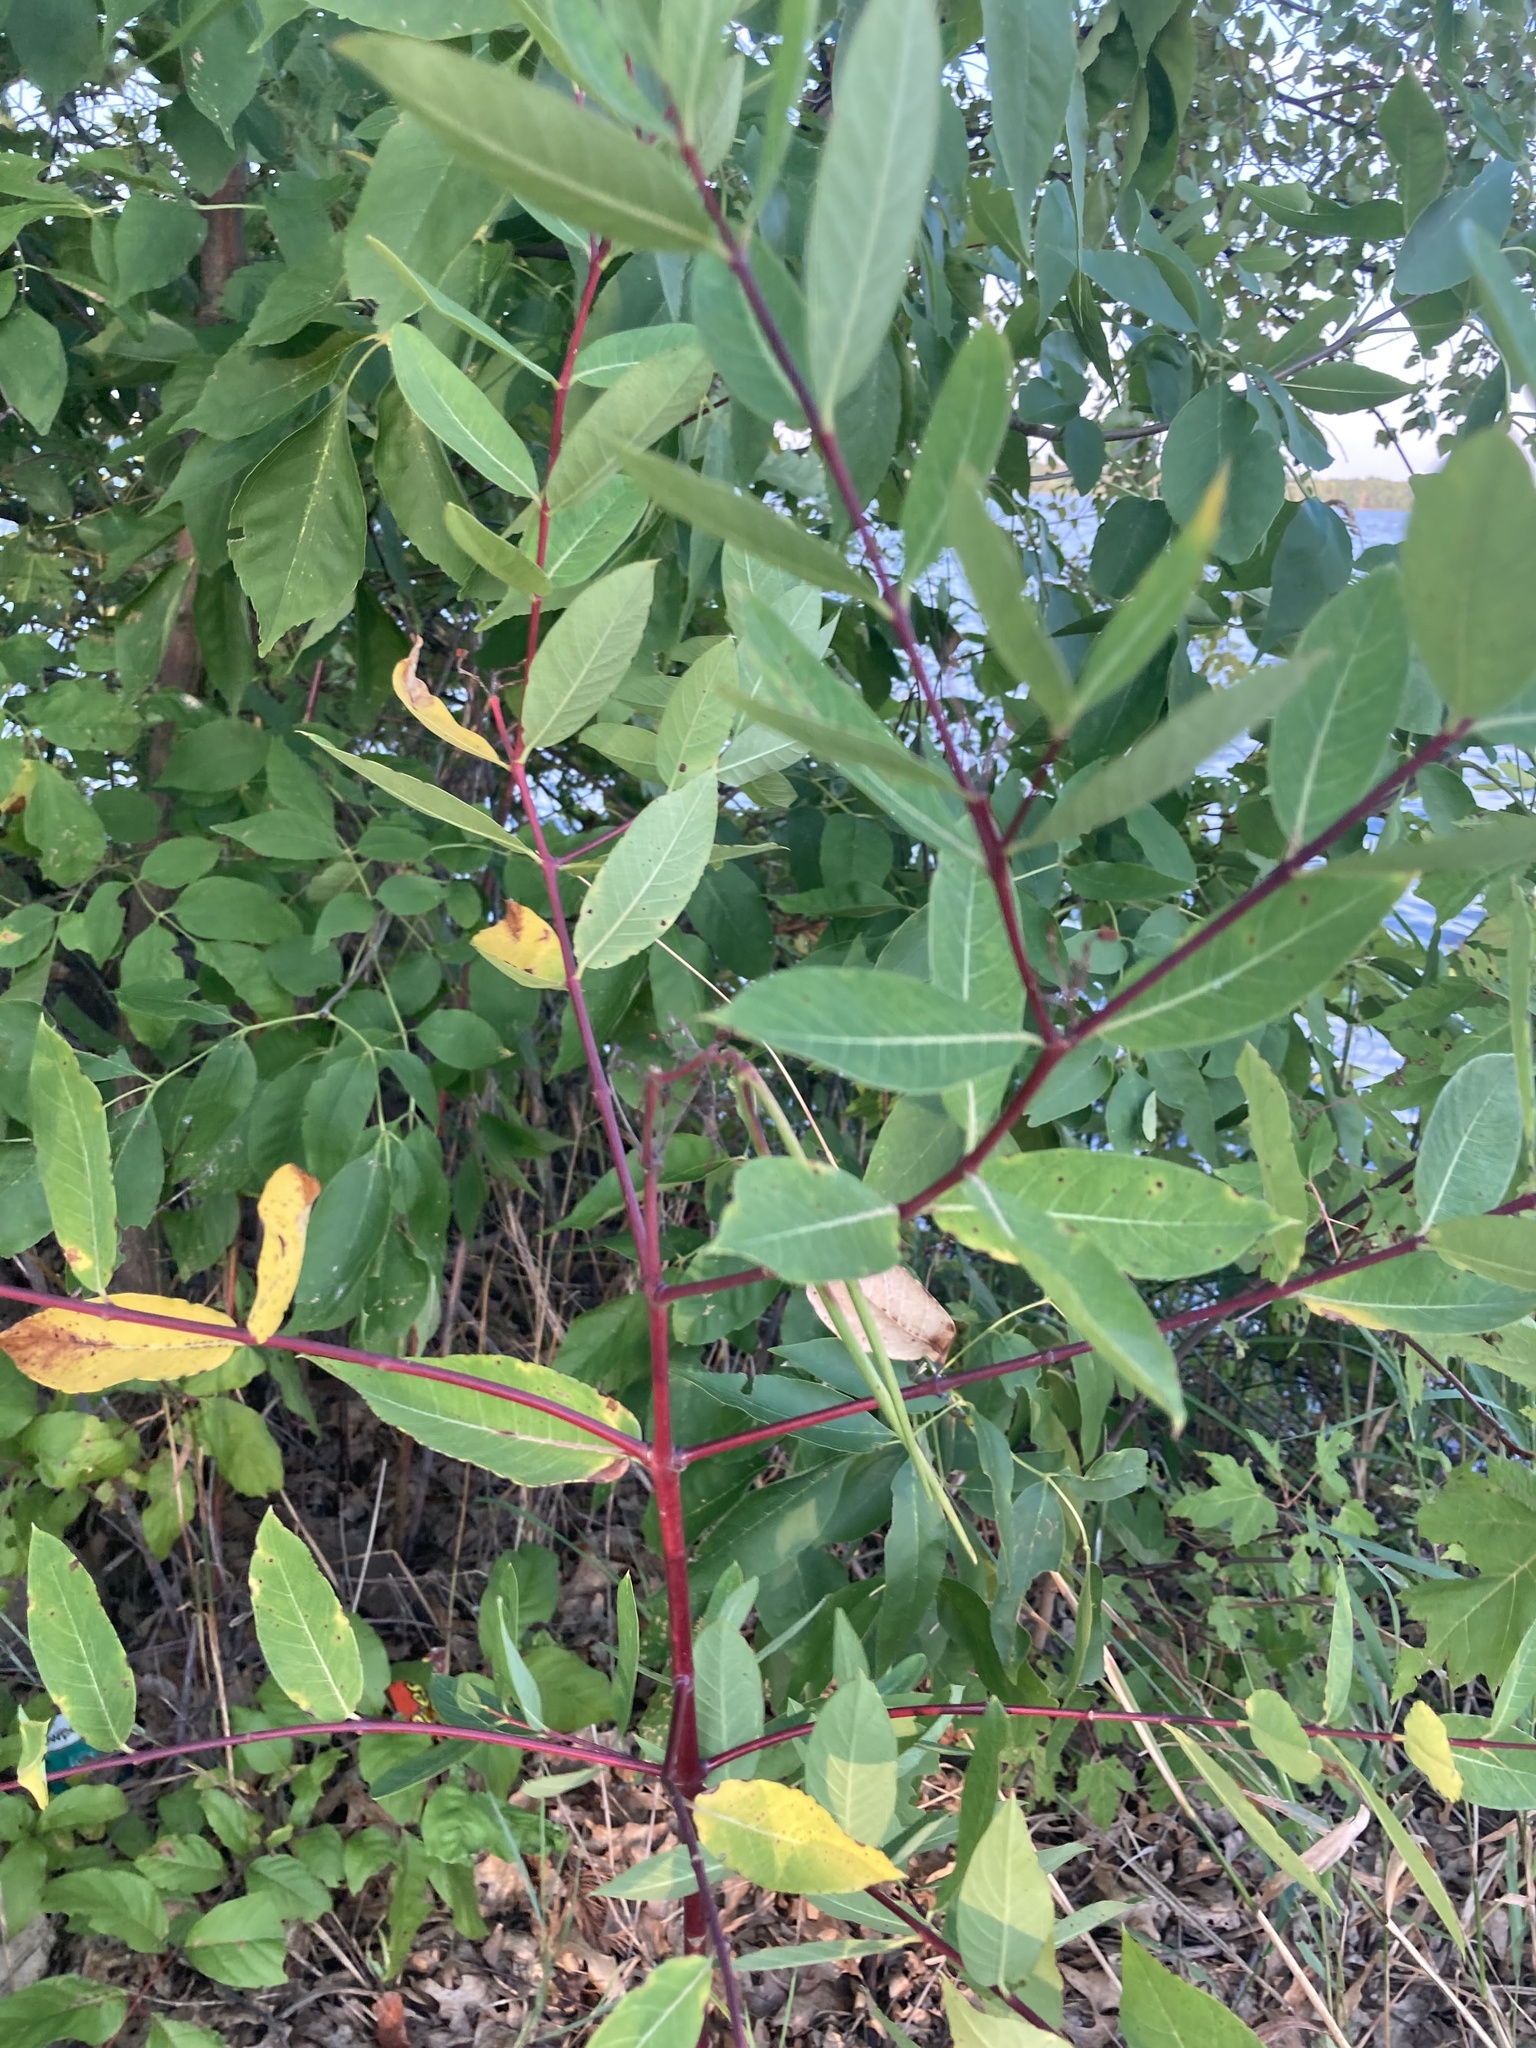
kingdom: Plantae
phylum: Tracheophyta
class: Magnoliopsida
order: Gentianales
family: Apocynaceae
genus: Apocynum
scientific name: Apocynum cannabinum
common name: Hemp dogbane
